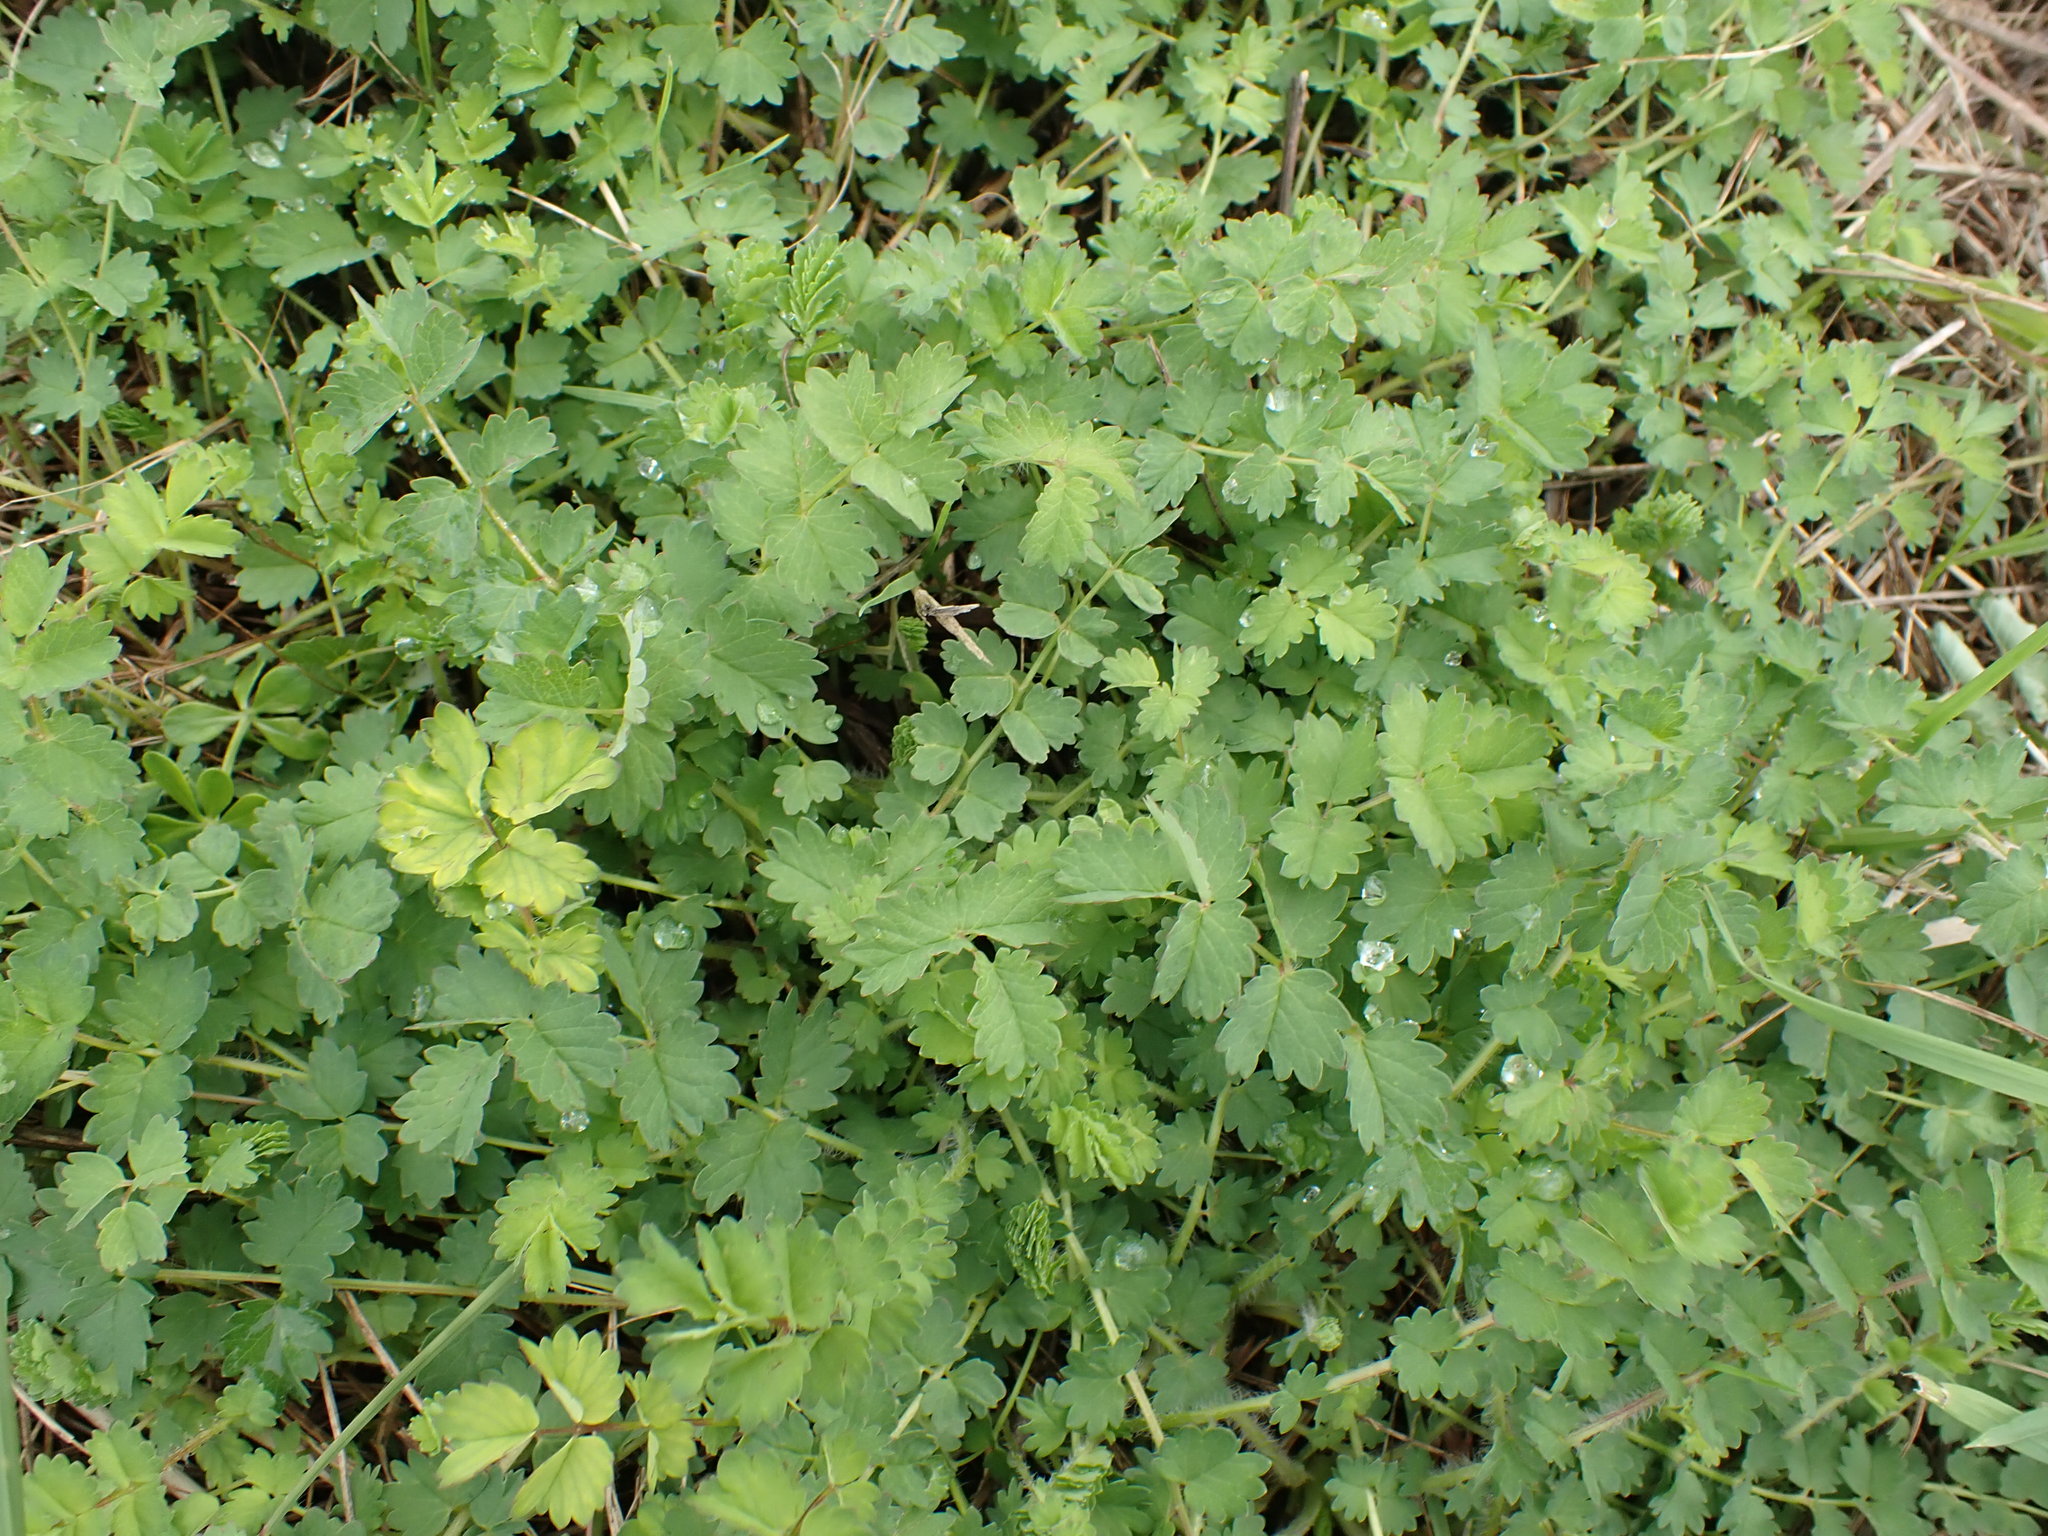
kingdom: Plantae
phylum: Tracheophyta
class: Magnoliopsida
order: Rosales
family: Rosaceae
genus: Poterium
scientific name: Poterium sanguisorba
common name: Salad burnet
